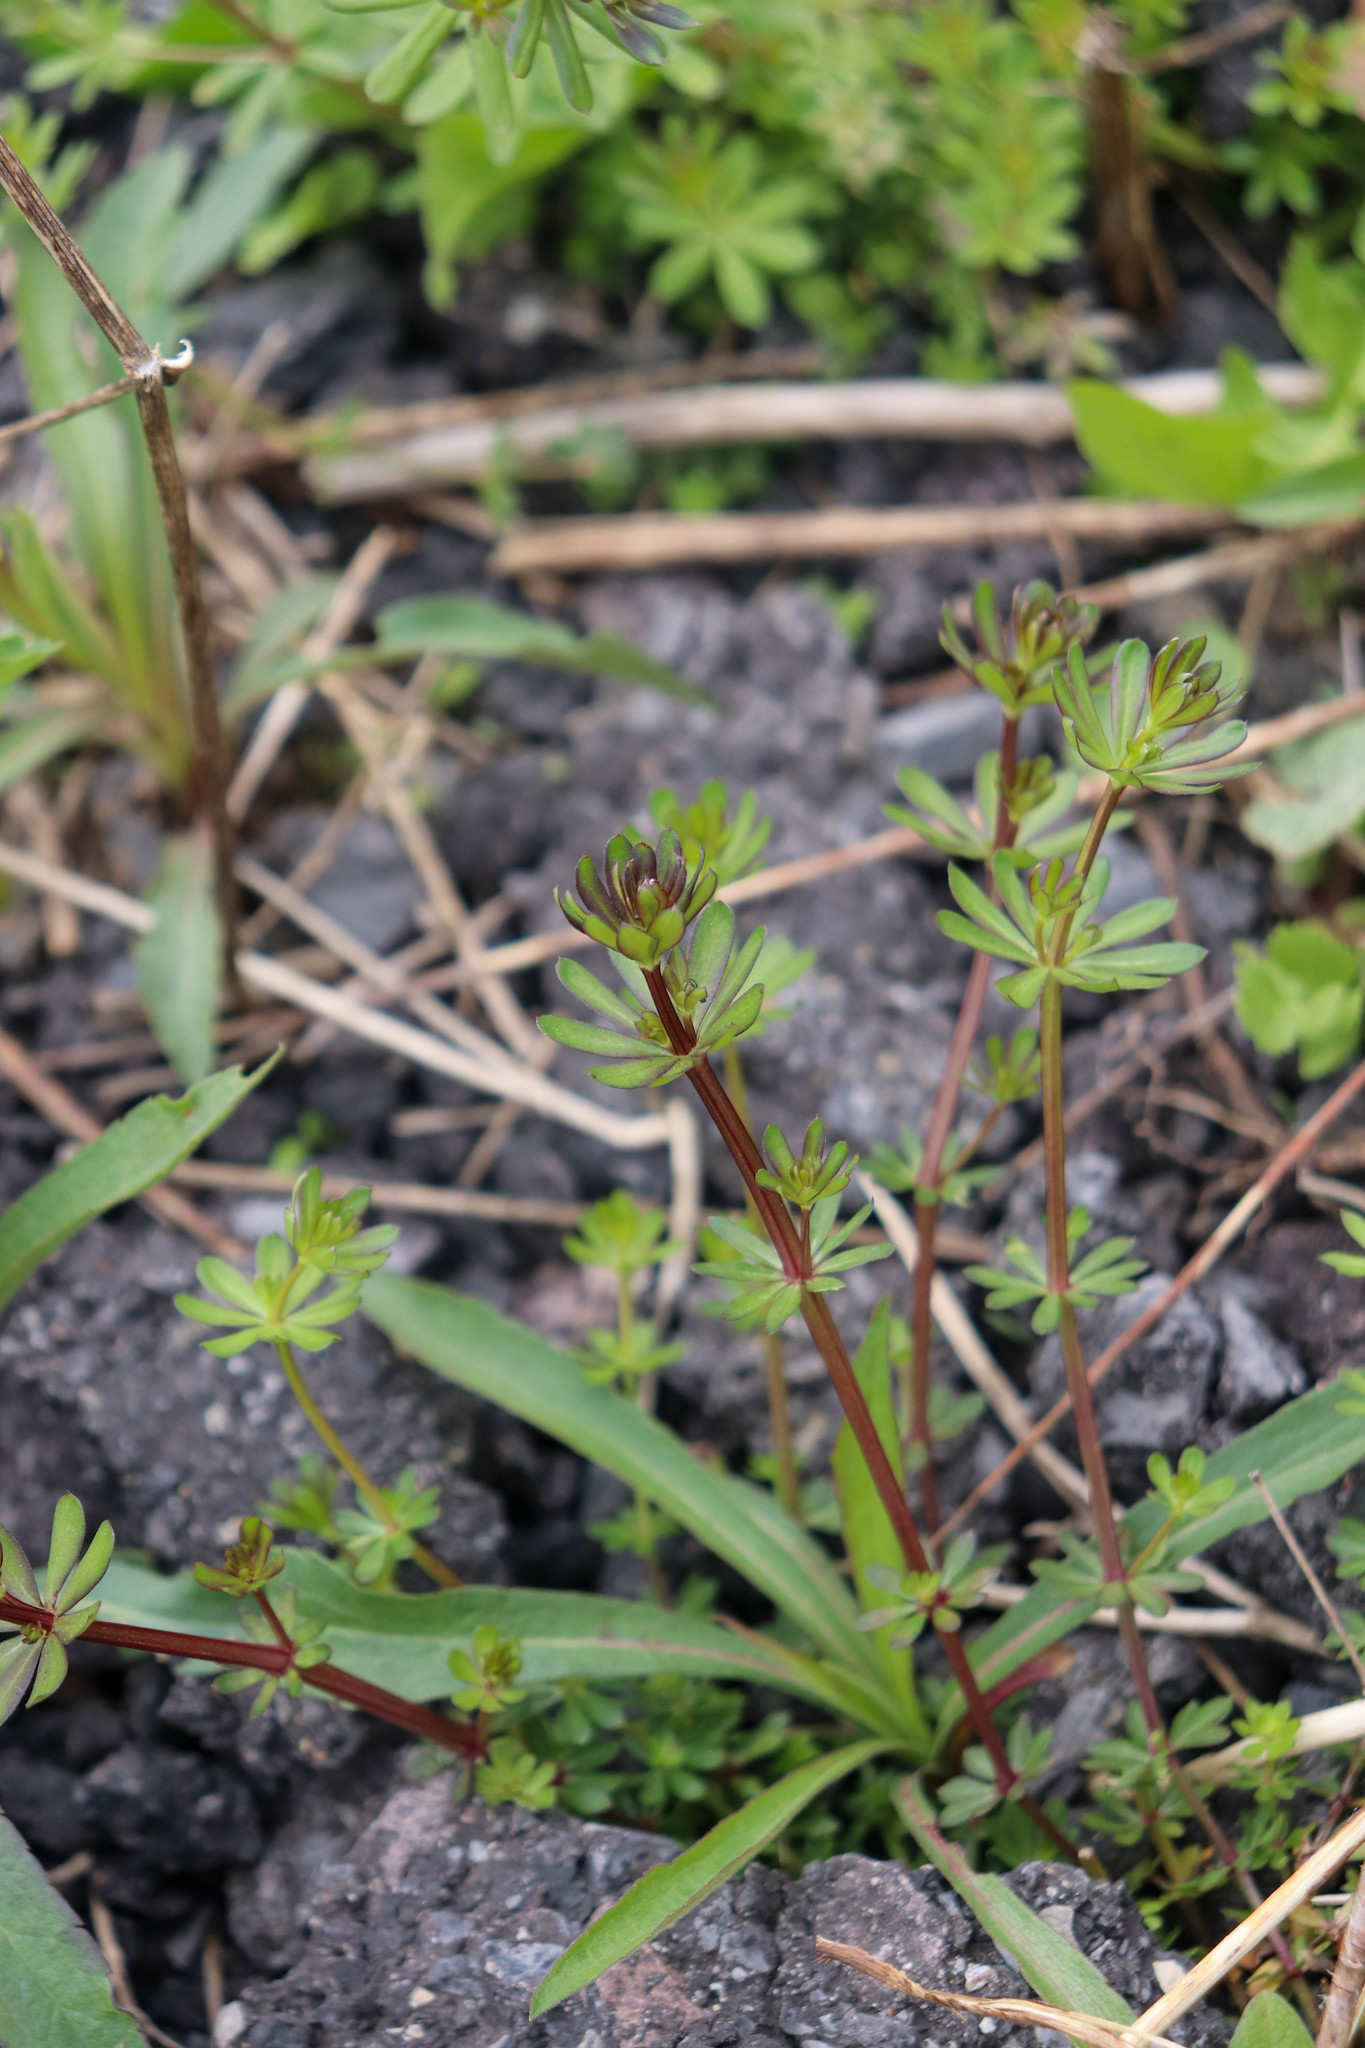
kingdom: Plantae
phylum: Tracheophyta
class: Magnoliopsida
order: Gentianales
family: Rubiaceae
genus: Galium
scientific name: Galium mollugo
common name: Hedge bedstraw
